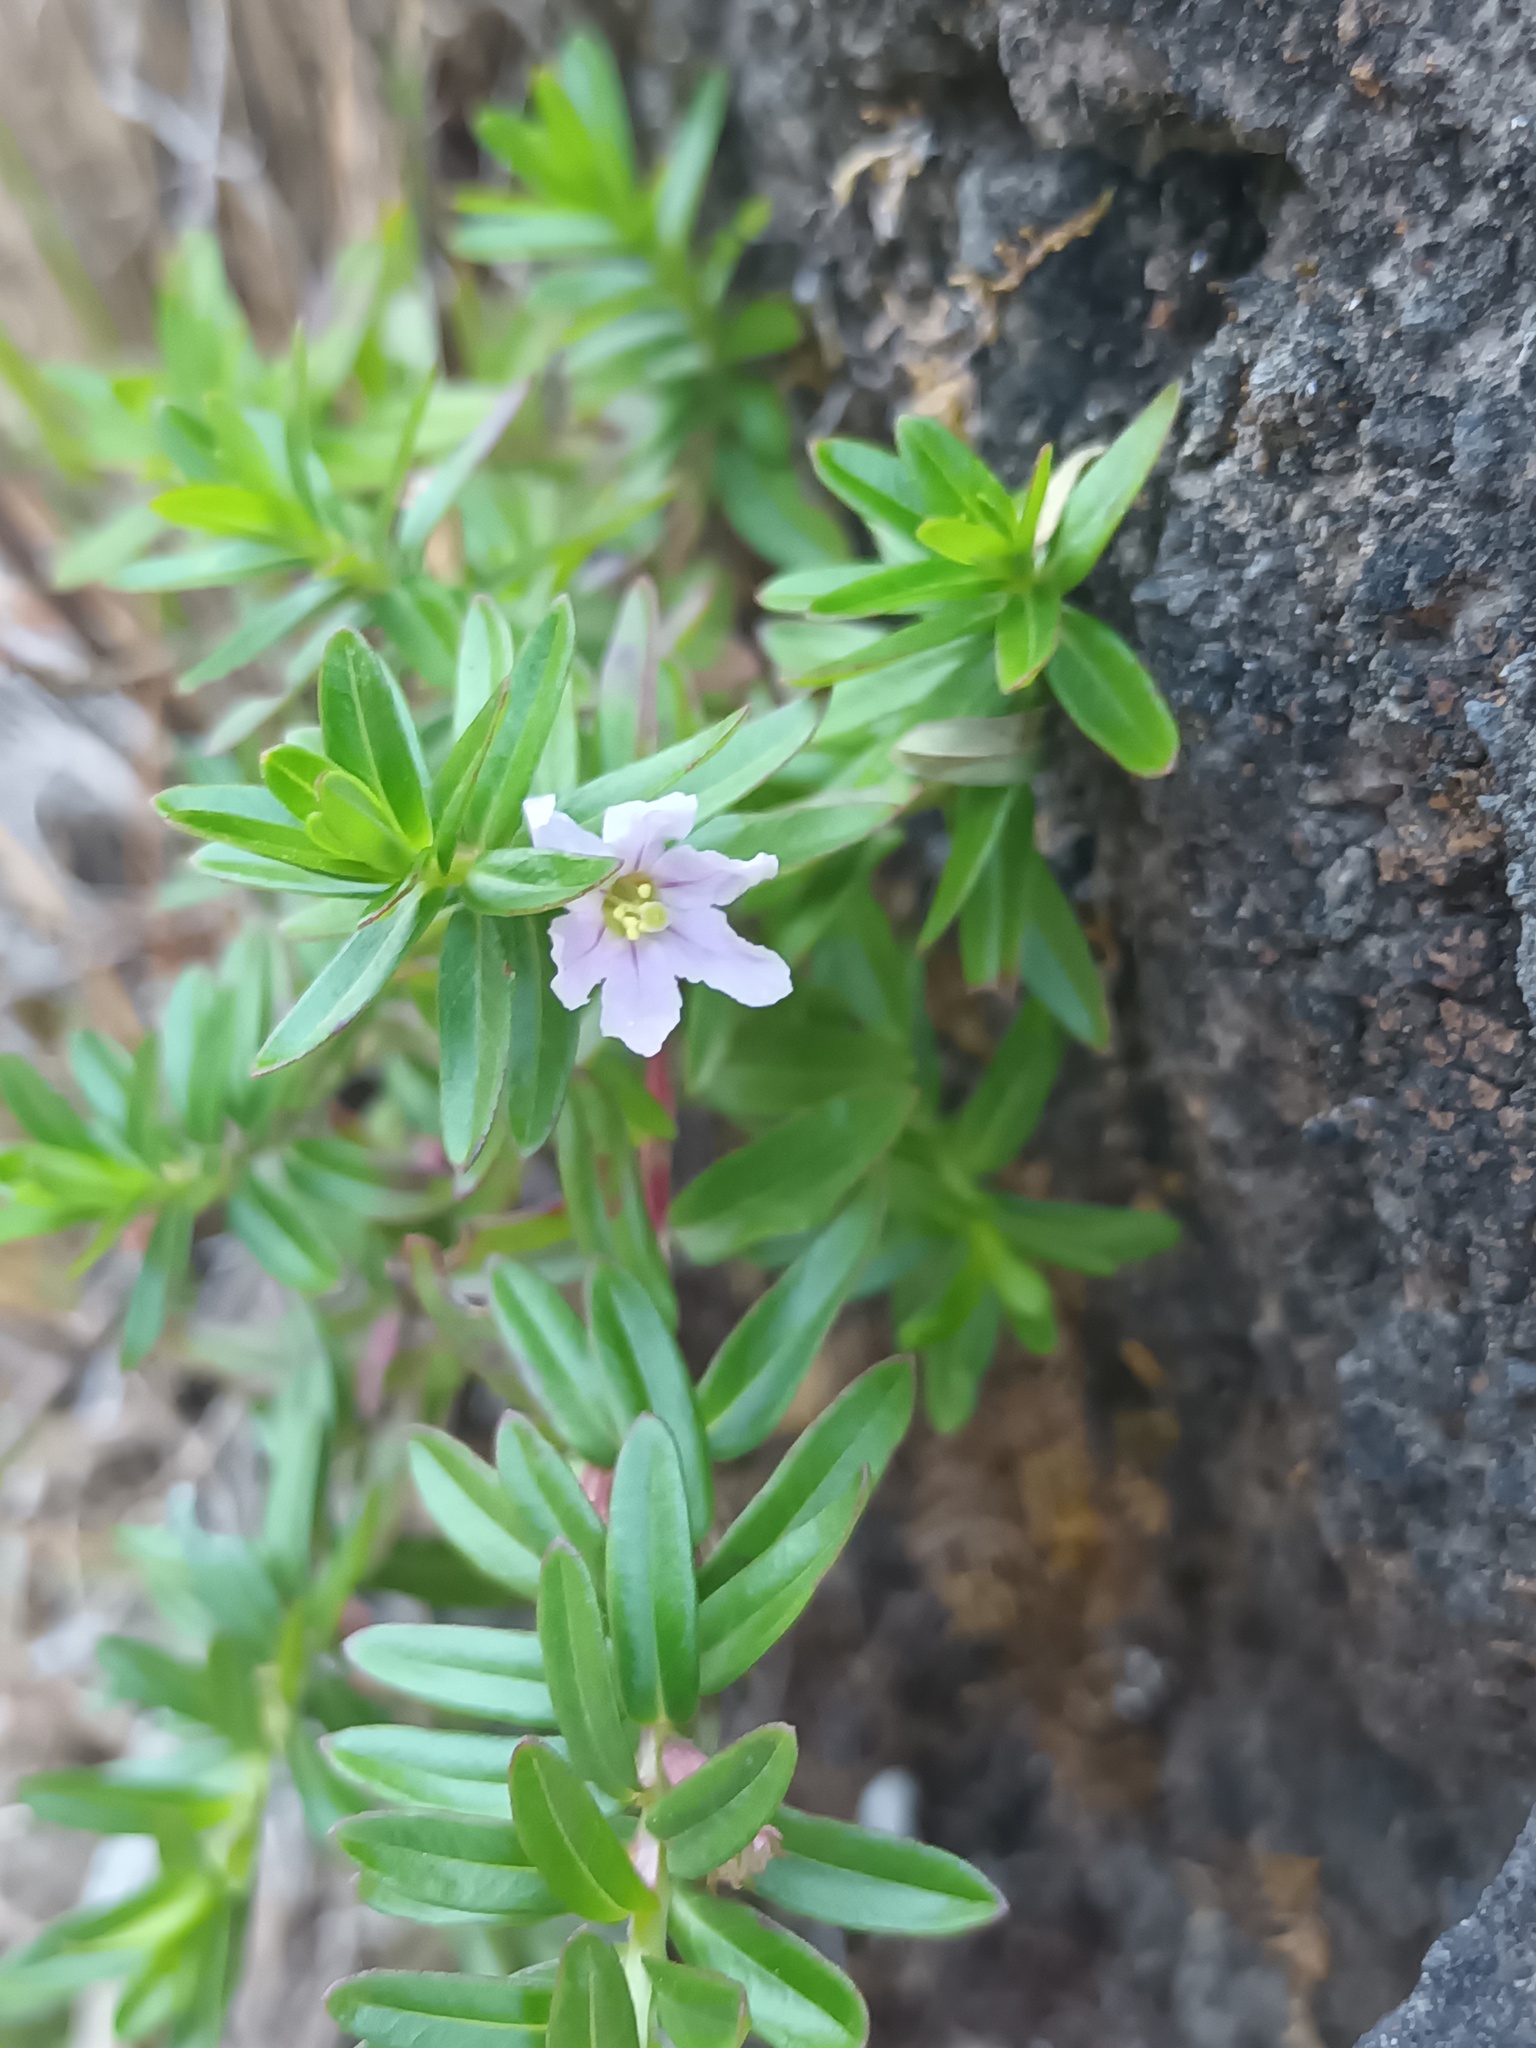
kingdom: Plantae
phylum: Tracheophyta
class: Magnoliopsida
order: Myrtales
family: Lythraceae
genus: Lythrum
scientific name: Lythrum maritimum
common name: Pukamole
